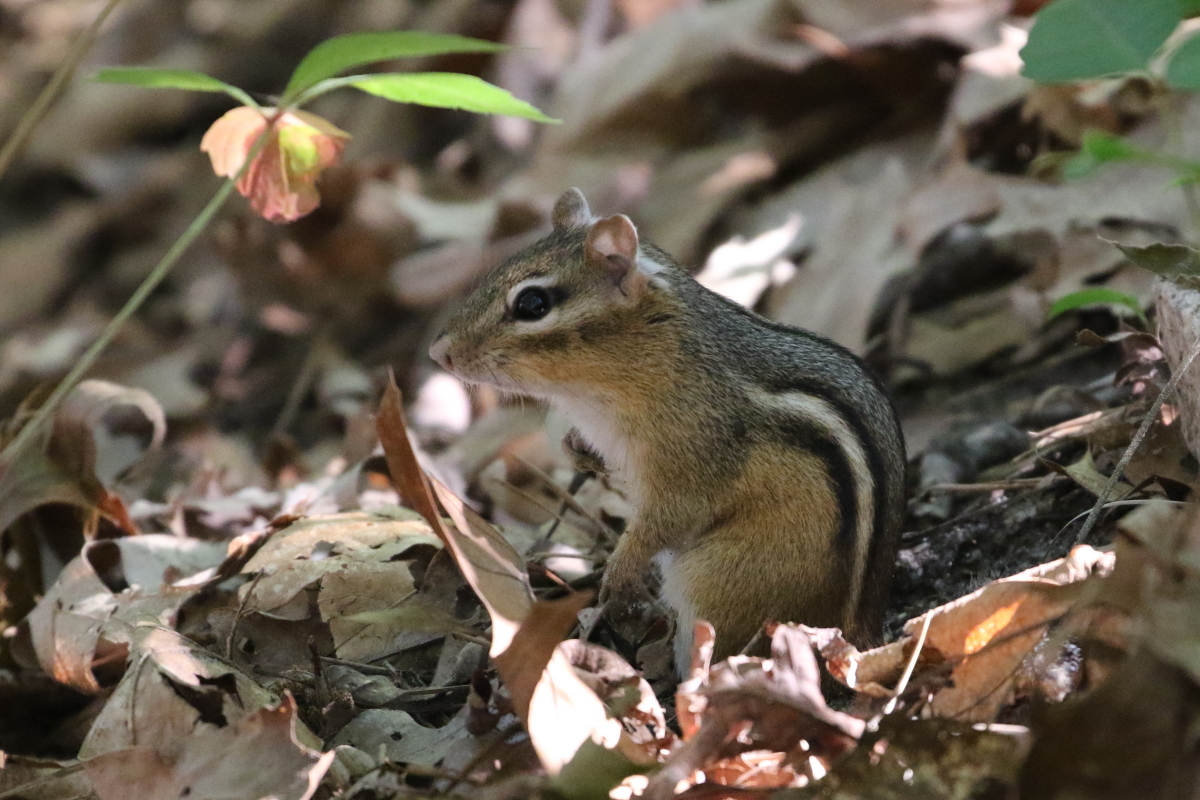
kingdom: Animalia
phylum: Chordata
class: Mammalia
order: Rodentia
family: Sciuridae
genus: Tamias
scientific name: Tamias striatus
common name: Eastern chipmunk
